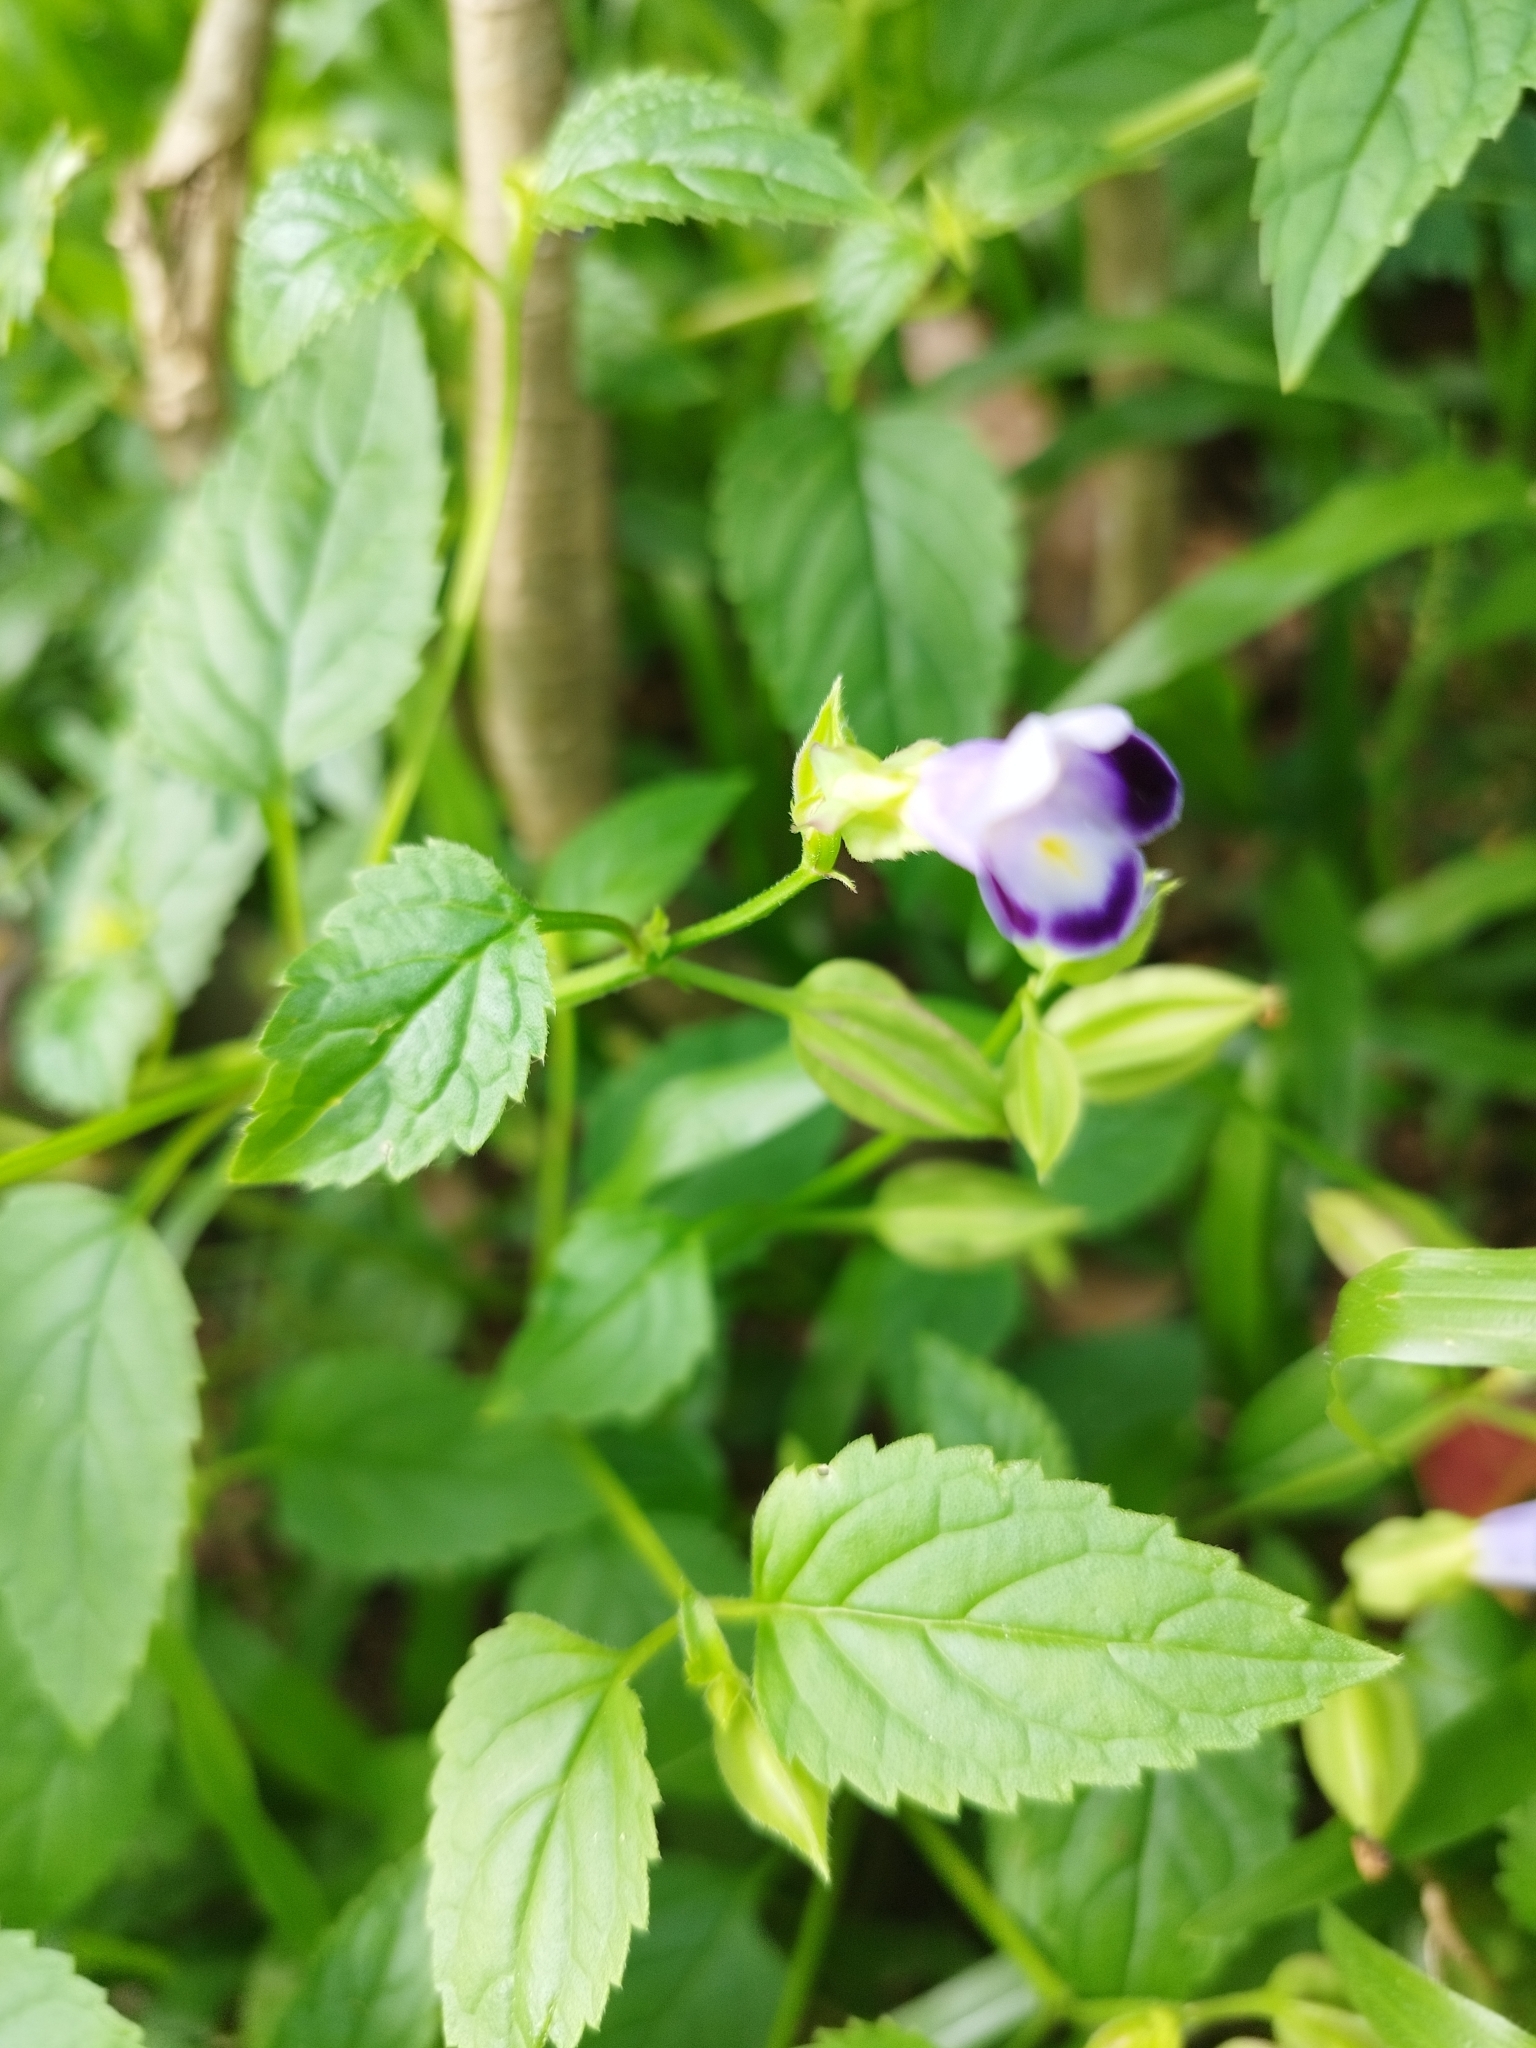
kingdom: Plantae
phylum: Tracheophyta
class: Magnoliopsida
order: Lamiales
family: Linderniaceae
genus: Torenia
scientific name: Torenia fournieri
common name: Bluewings
